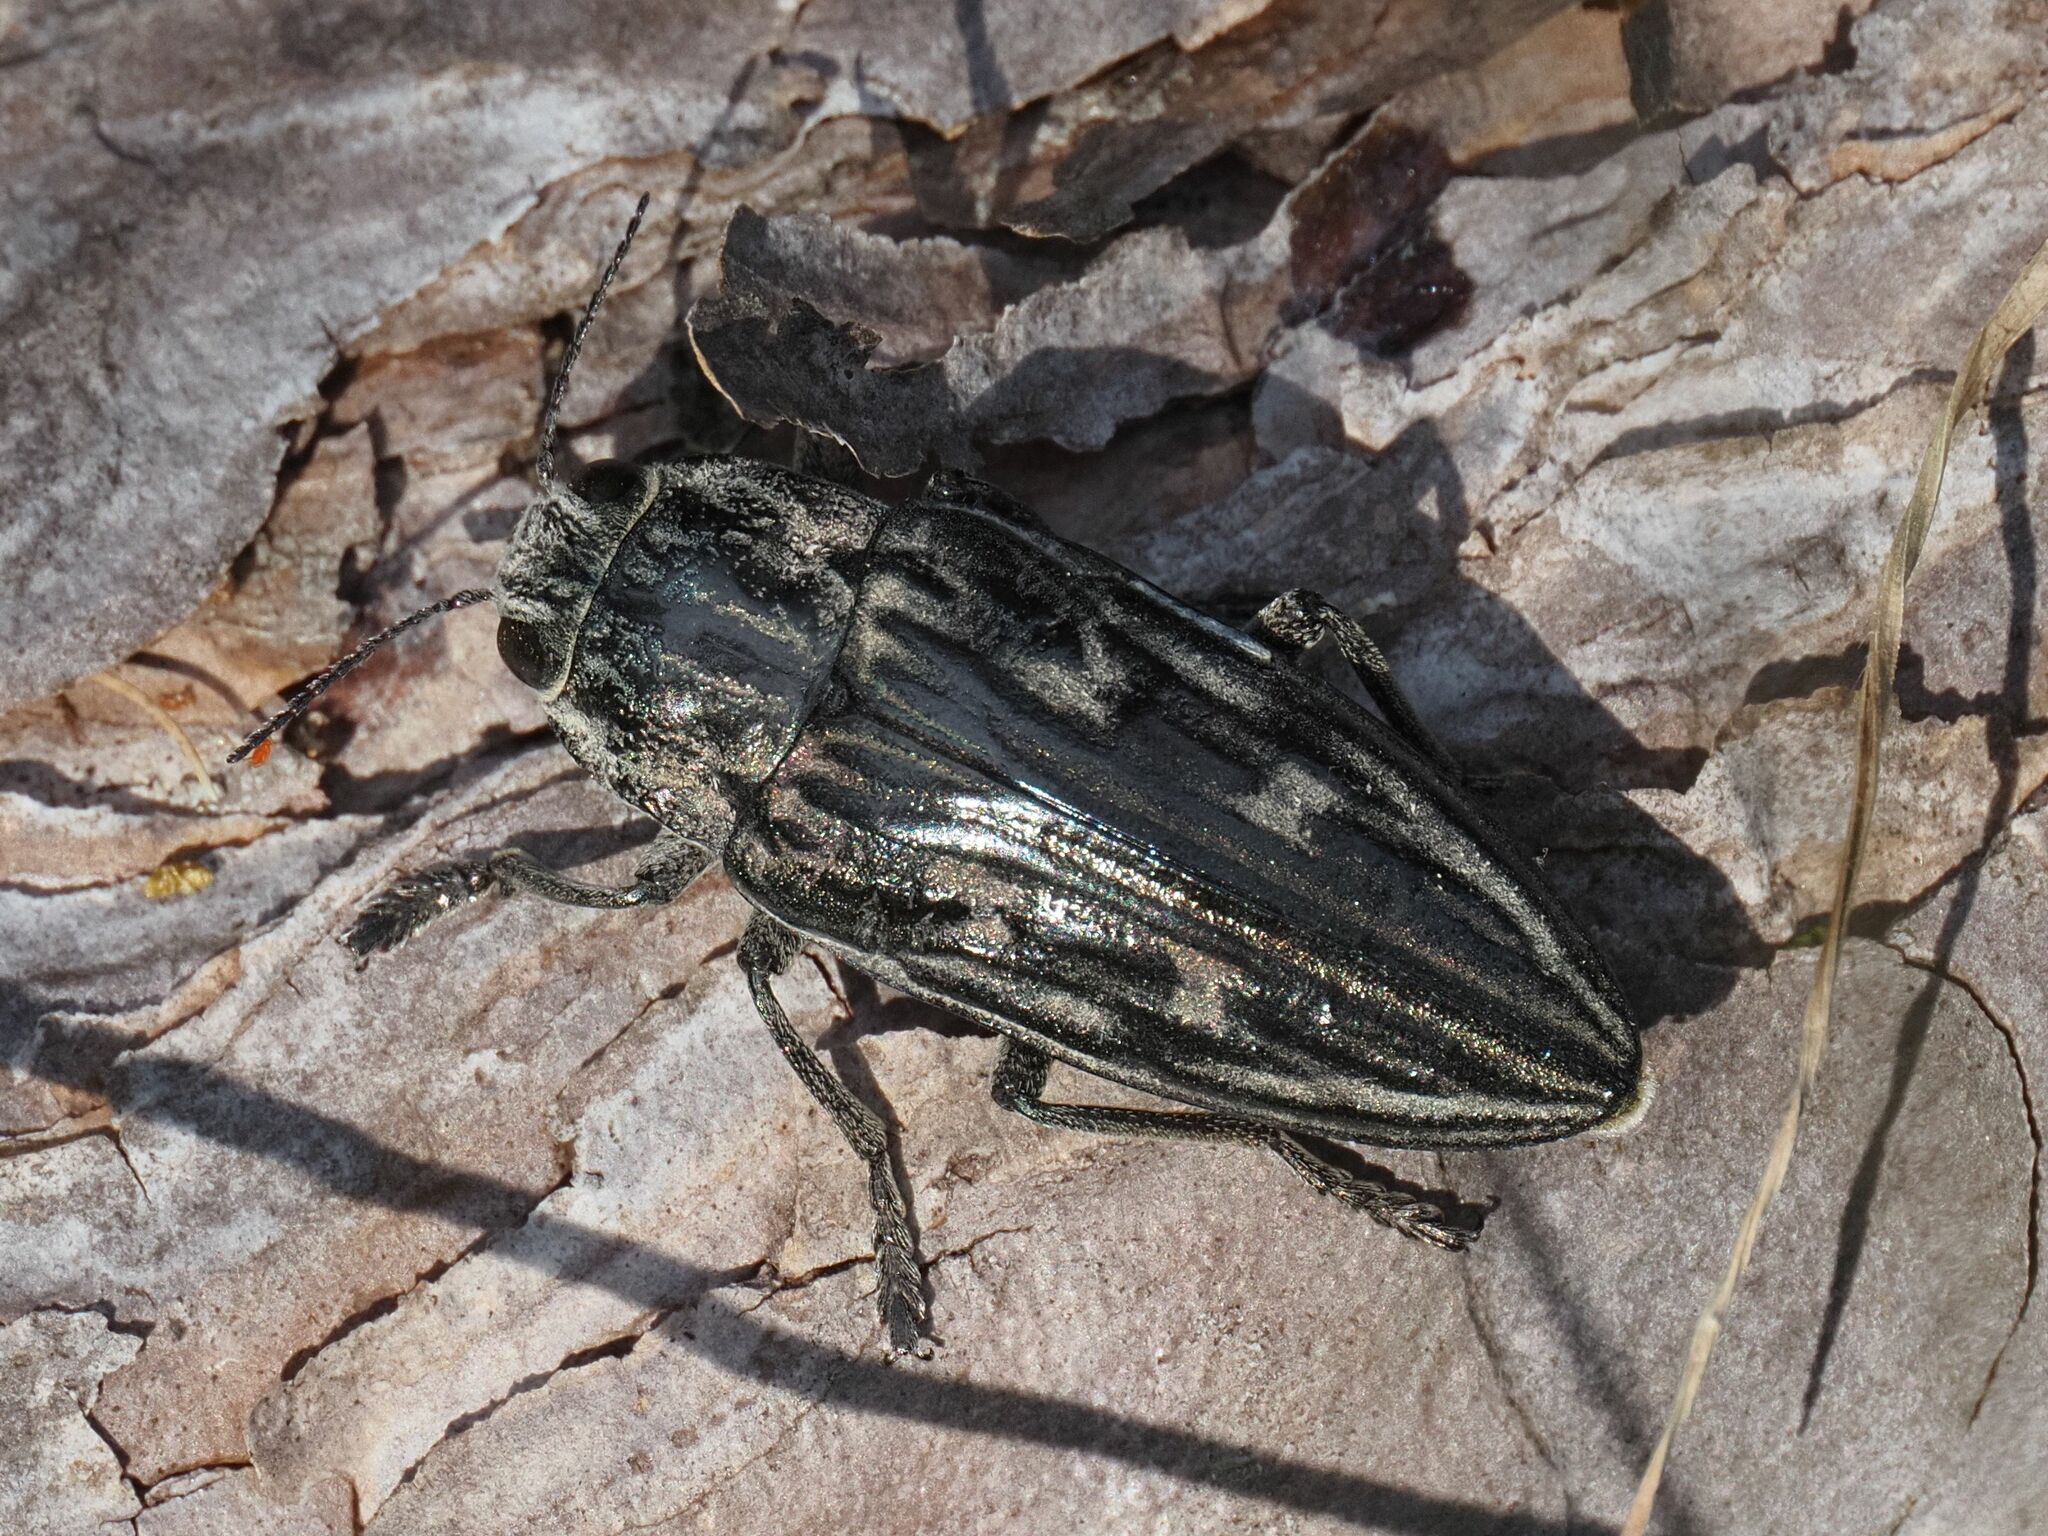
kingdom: Animalia
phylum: Arthropoda
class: Insecta
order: Coleoptera
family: Buprestidae
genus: Chalcophora
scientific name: Chalcophora mariana
